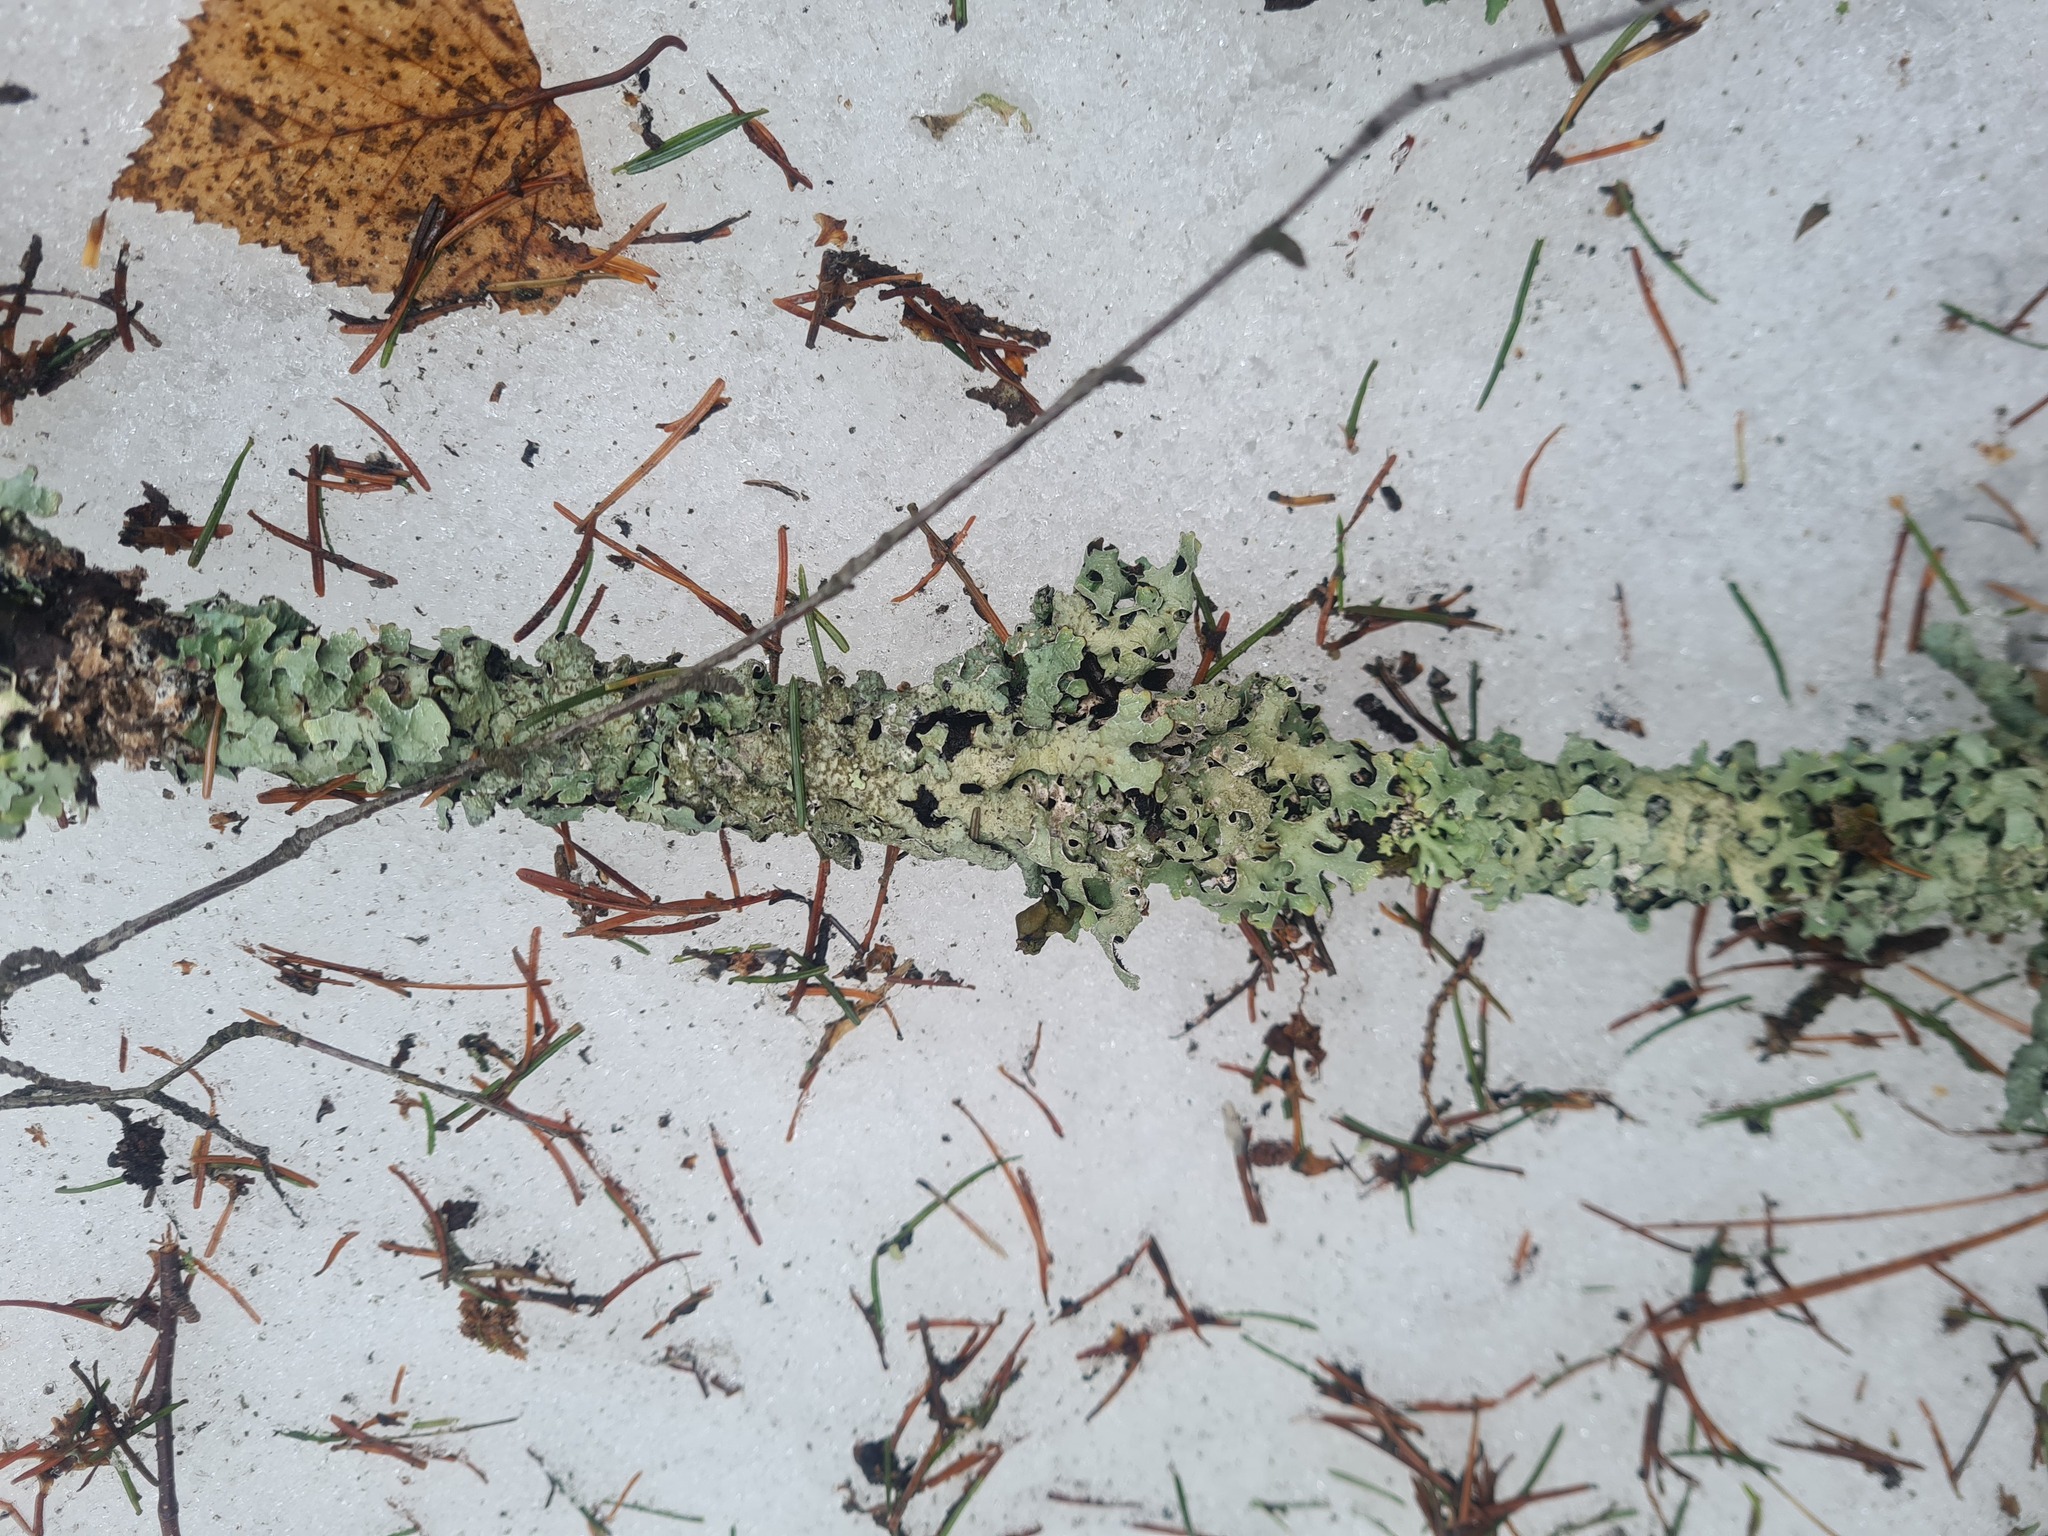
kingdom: Fungi
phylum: Ascomycota
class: Lecanoromycetes
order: Lecanorales
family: Parmeliaceae
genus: Parmelia
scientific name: Parmelia sulcata
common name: Netted shield lichen
